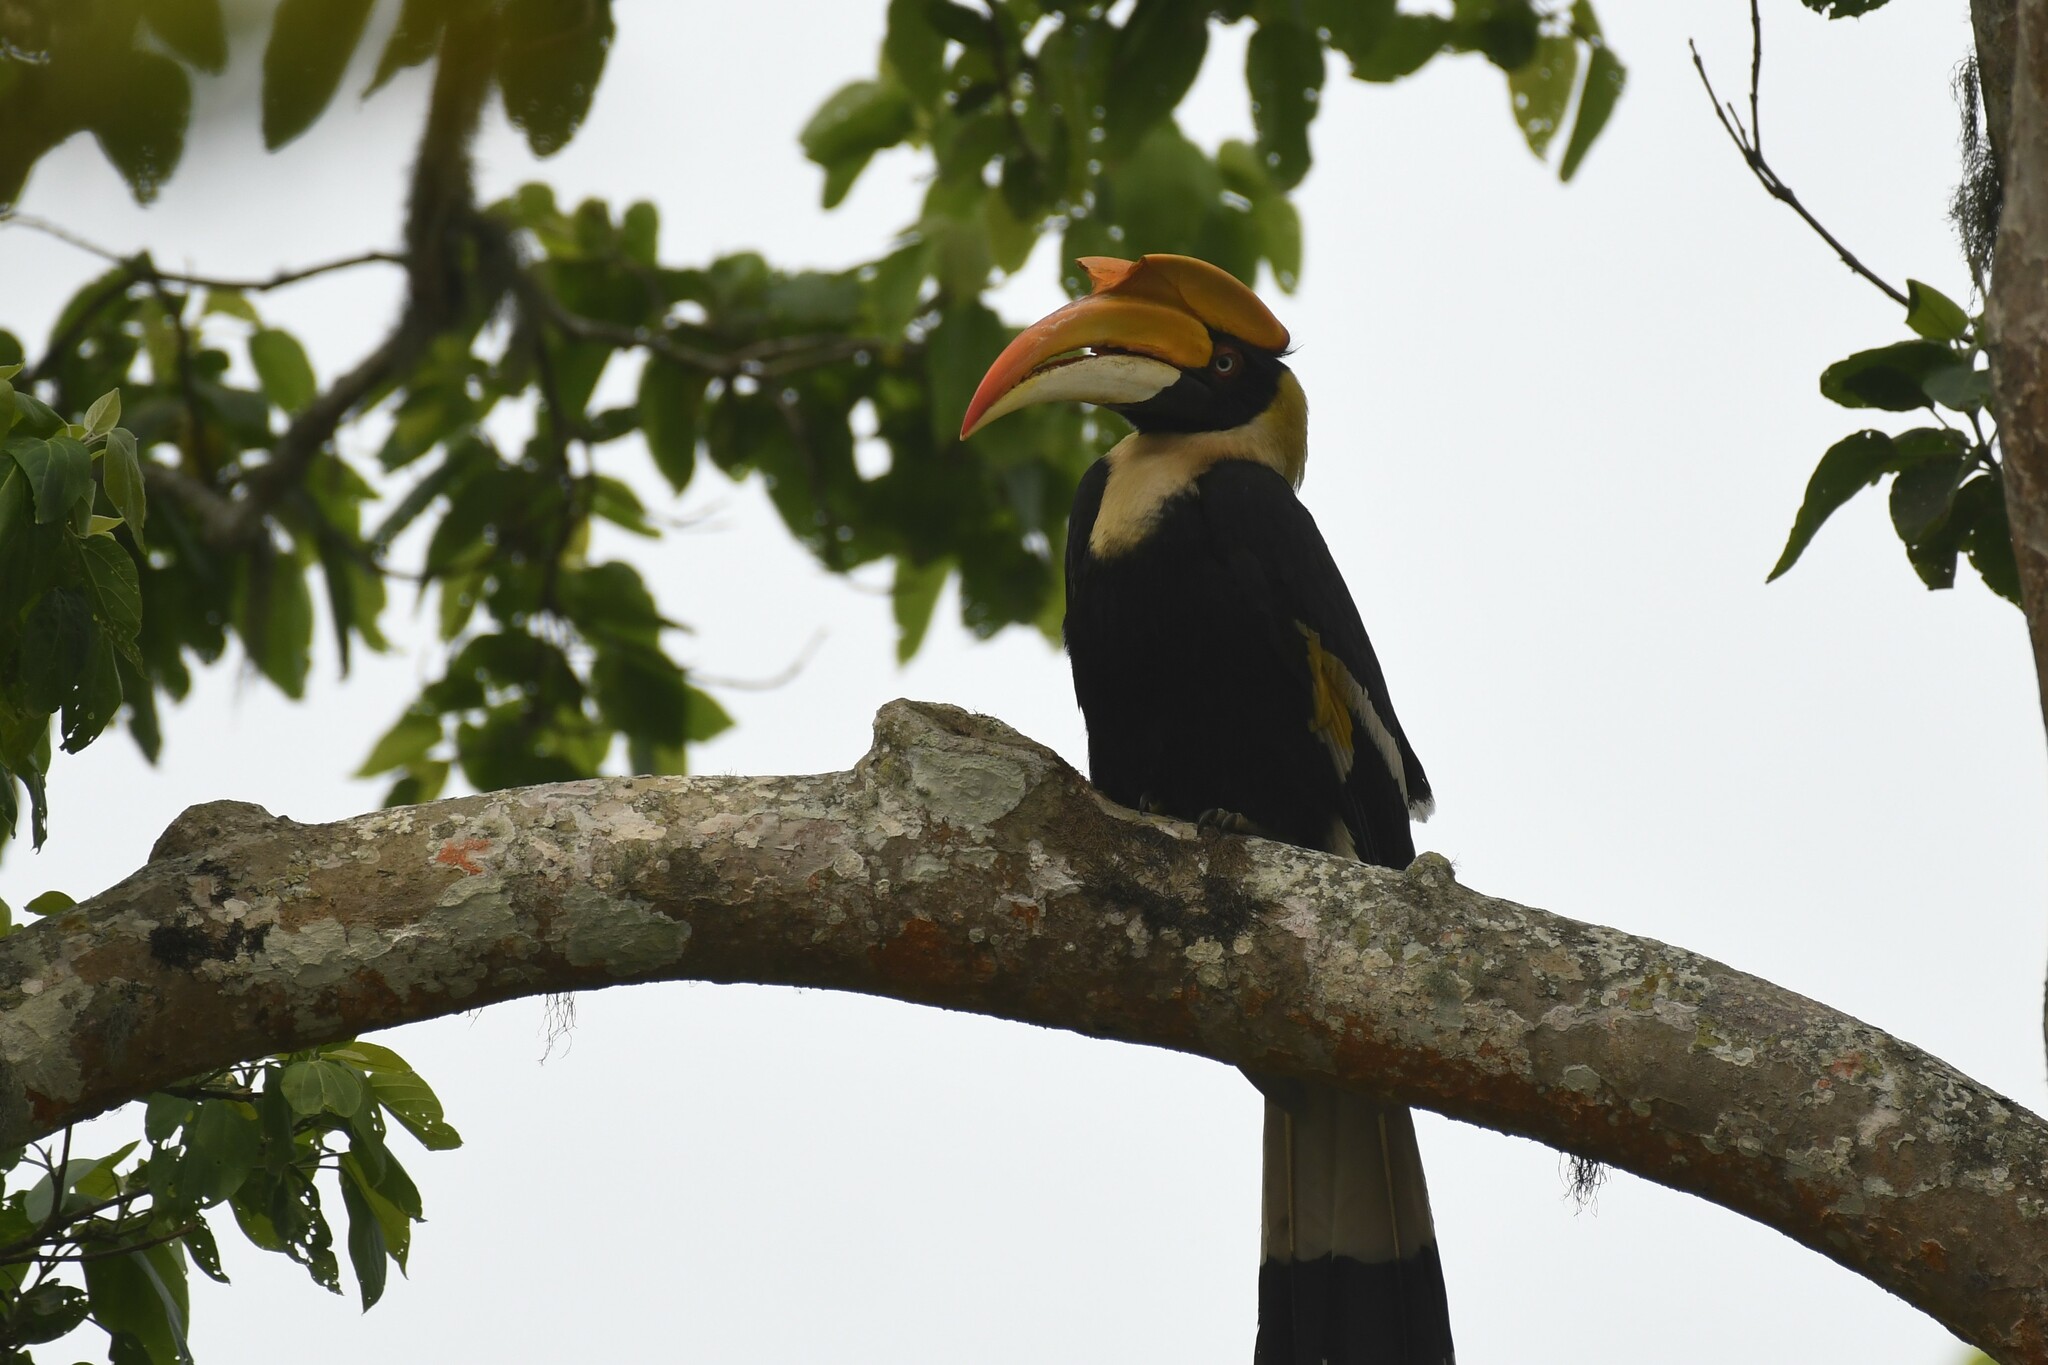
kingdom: Animalia
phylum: Chordata
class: Aves
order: Bucerotiformes
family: Bucerotidae
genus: Buceros
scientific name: Buceros bicornis
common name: Great hornbill
